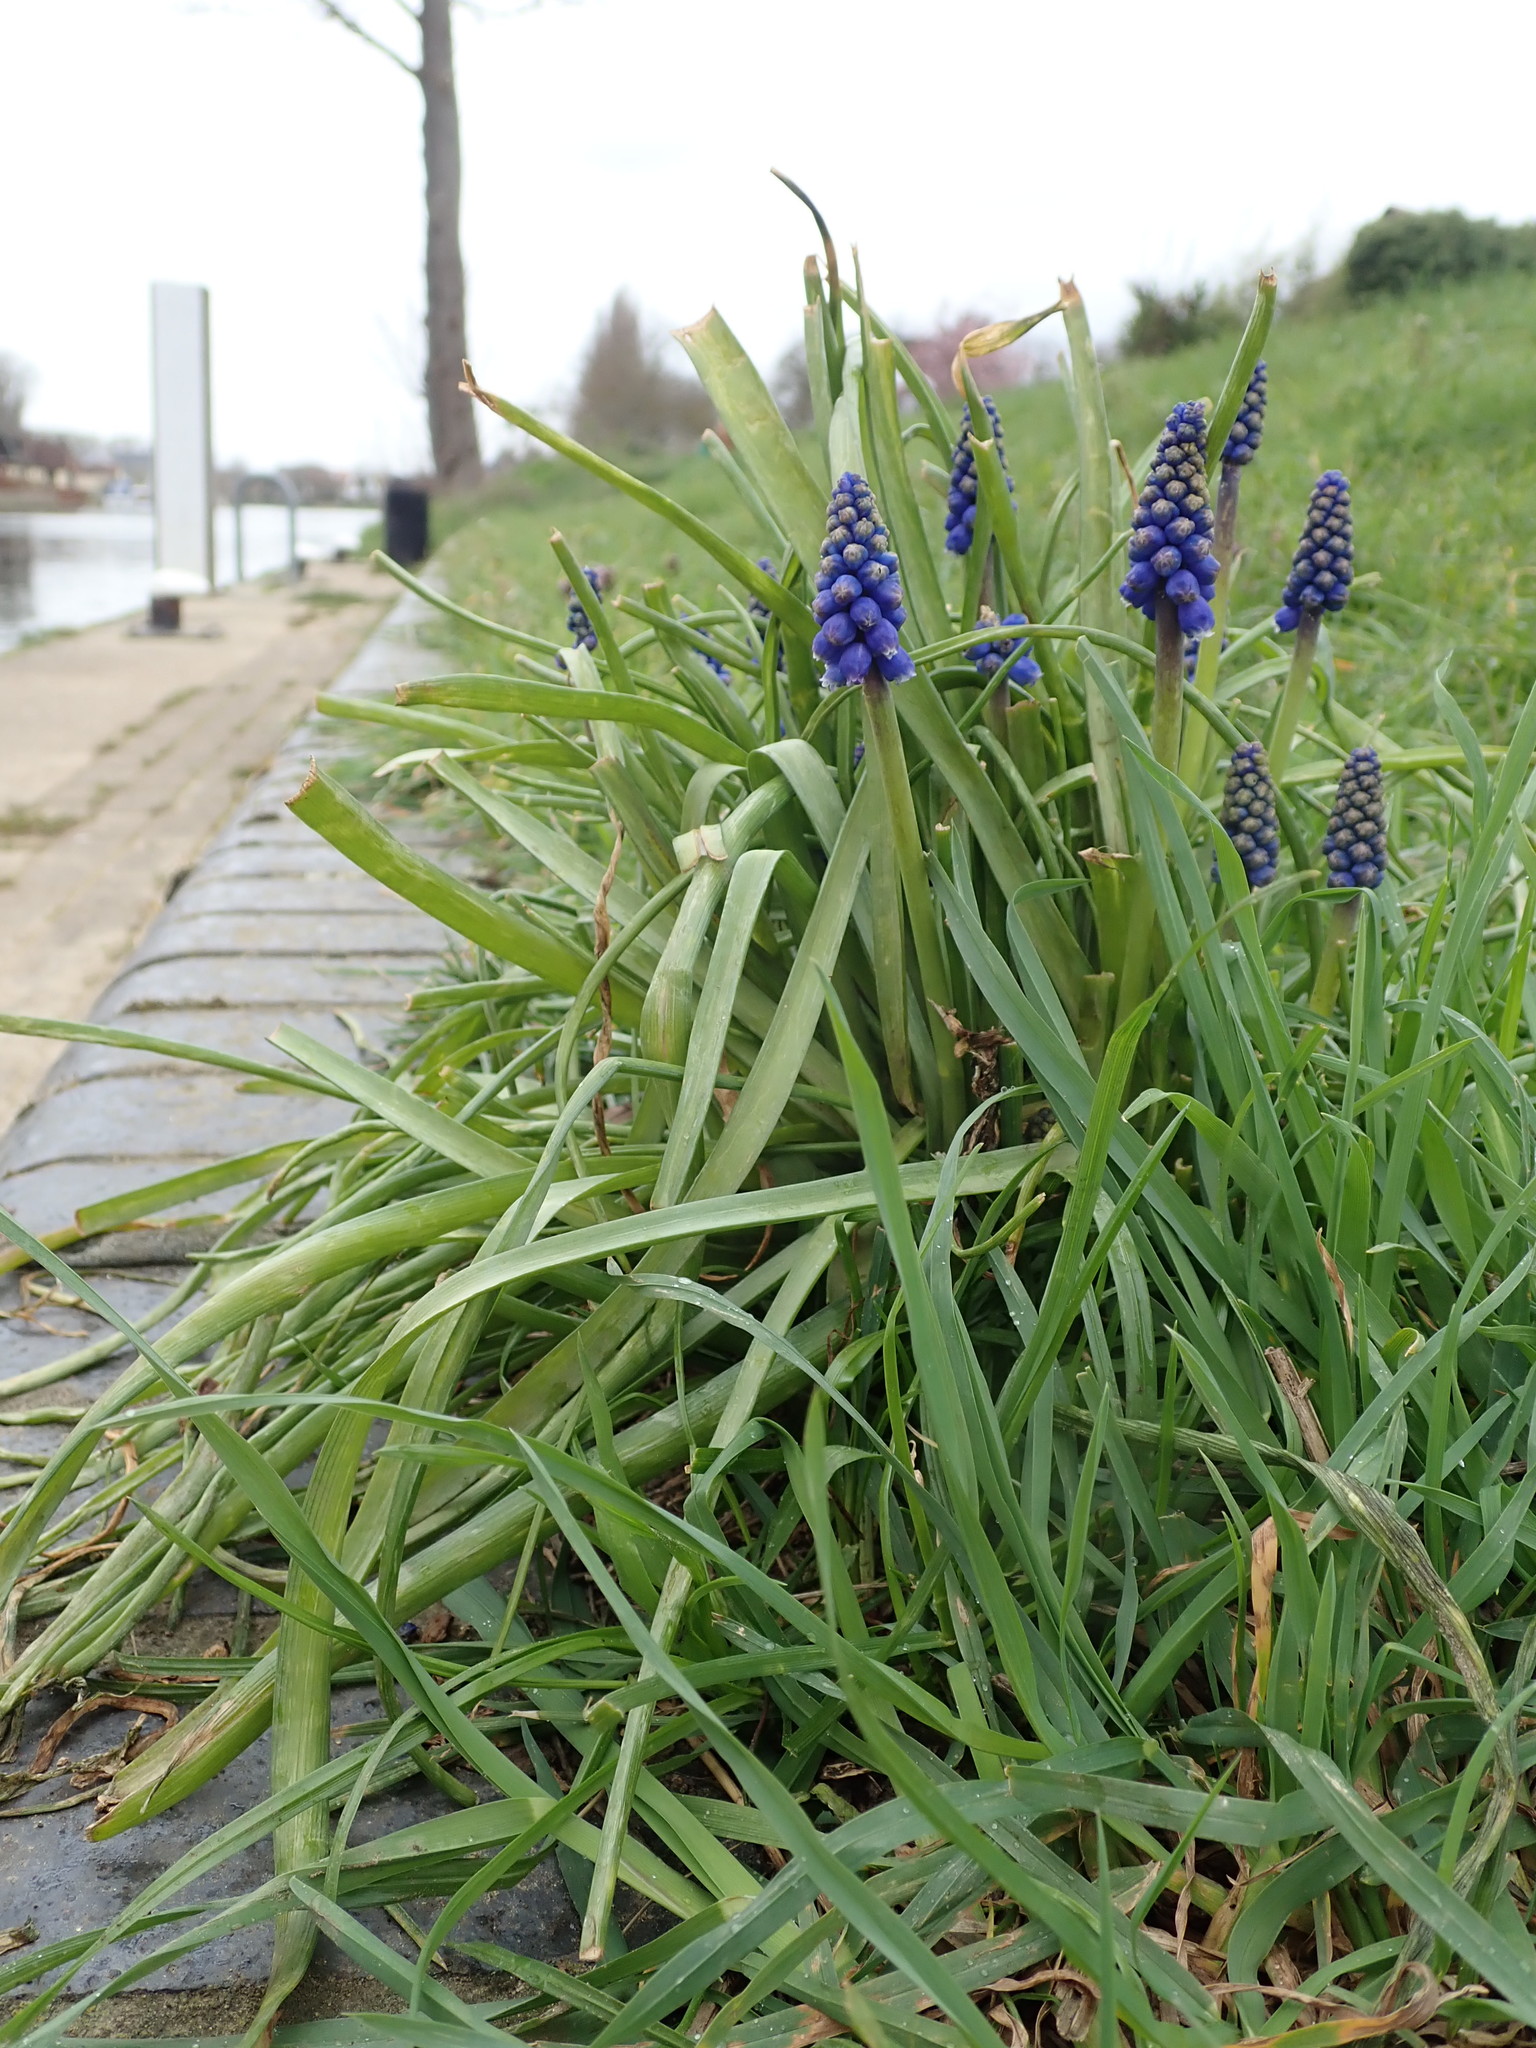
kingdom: Plantae
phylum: Tracheophyta
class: Liliopsida
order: Asparagales
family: Asparagaceae
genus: Muscari
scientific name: Muscari armeniacum
